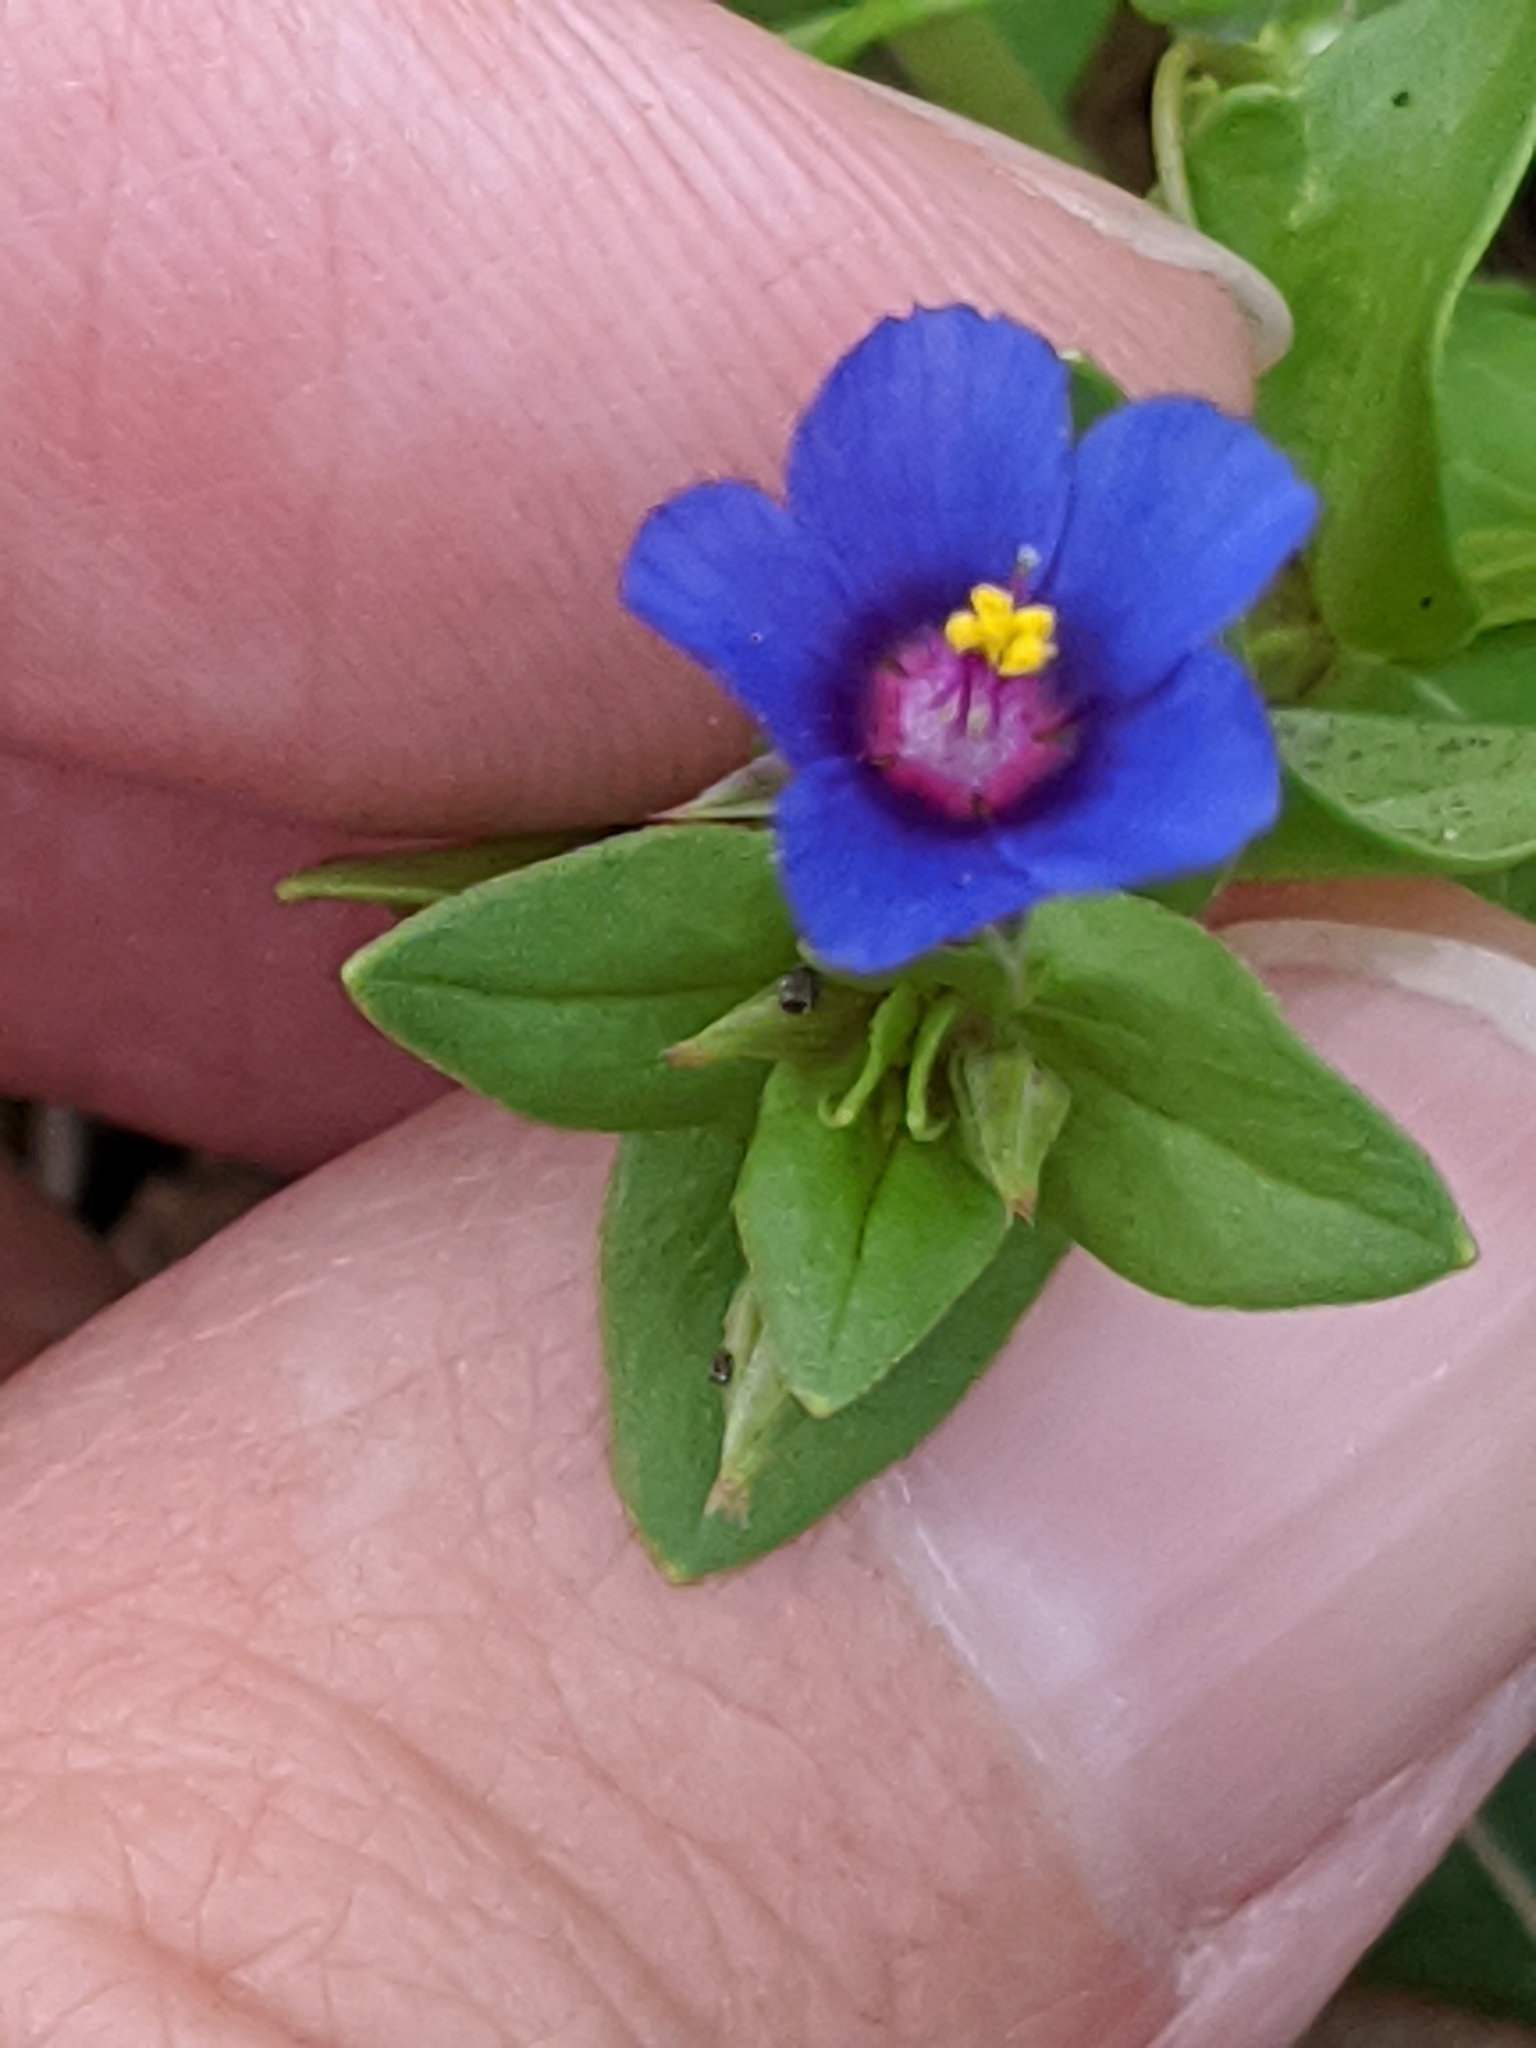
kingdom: Plantae
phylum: Tracheophyta
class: Magnoliopsida
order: Ericales
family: Primulaceae
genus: Lysimachia
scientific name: Lysimachia arvensis
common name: Scarlet pimpernel
